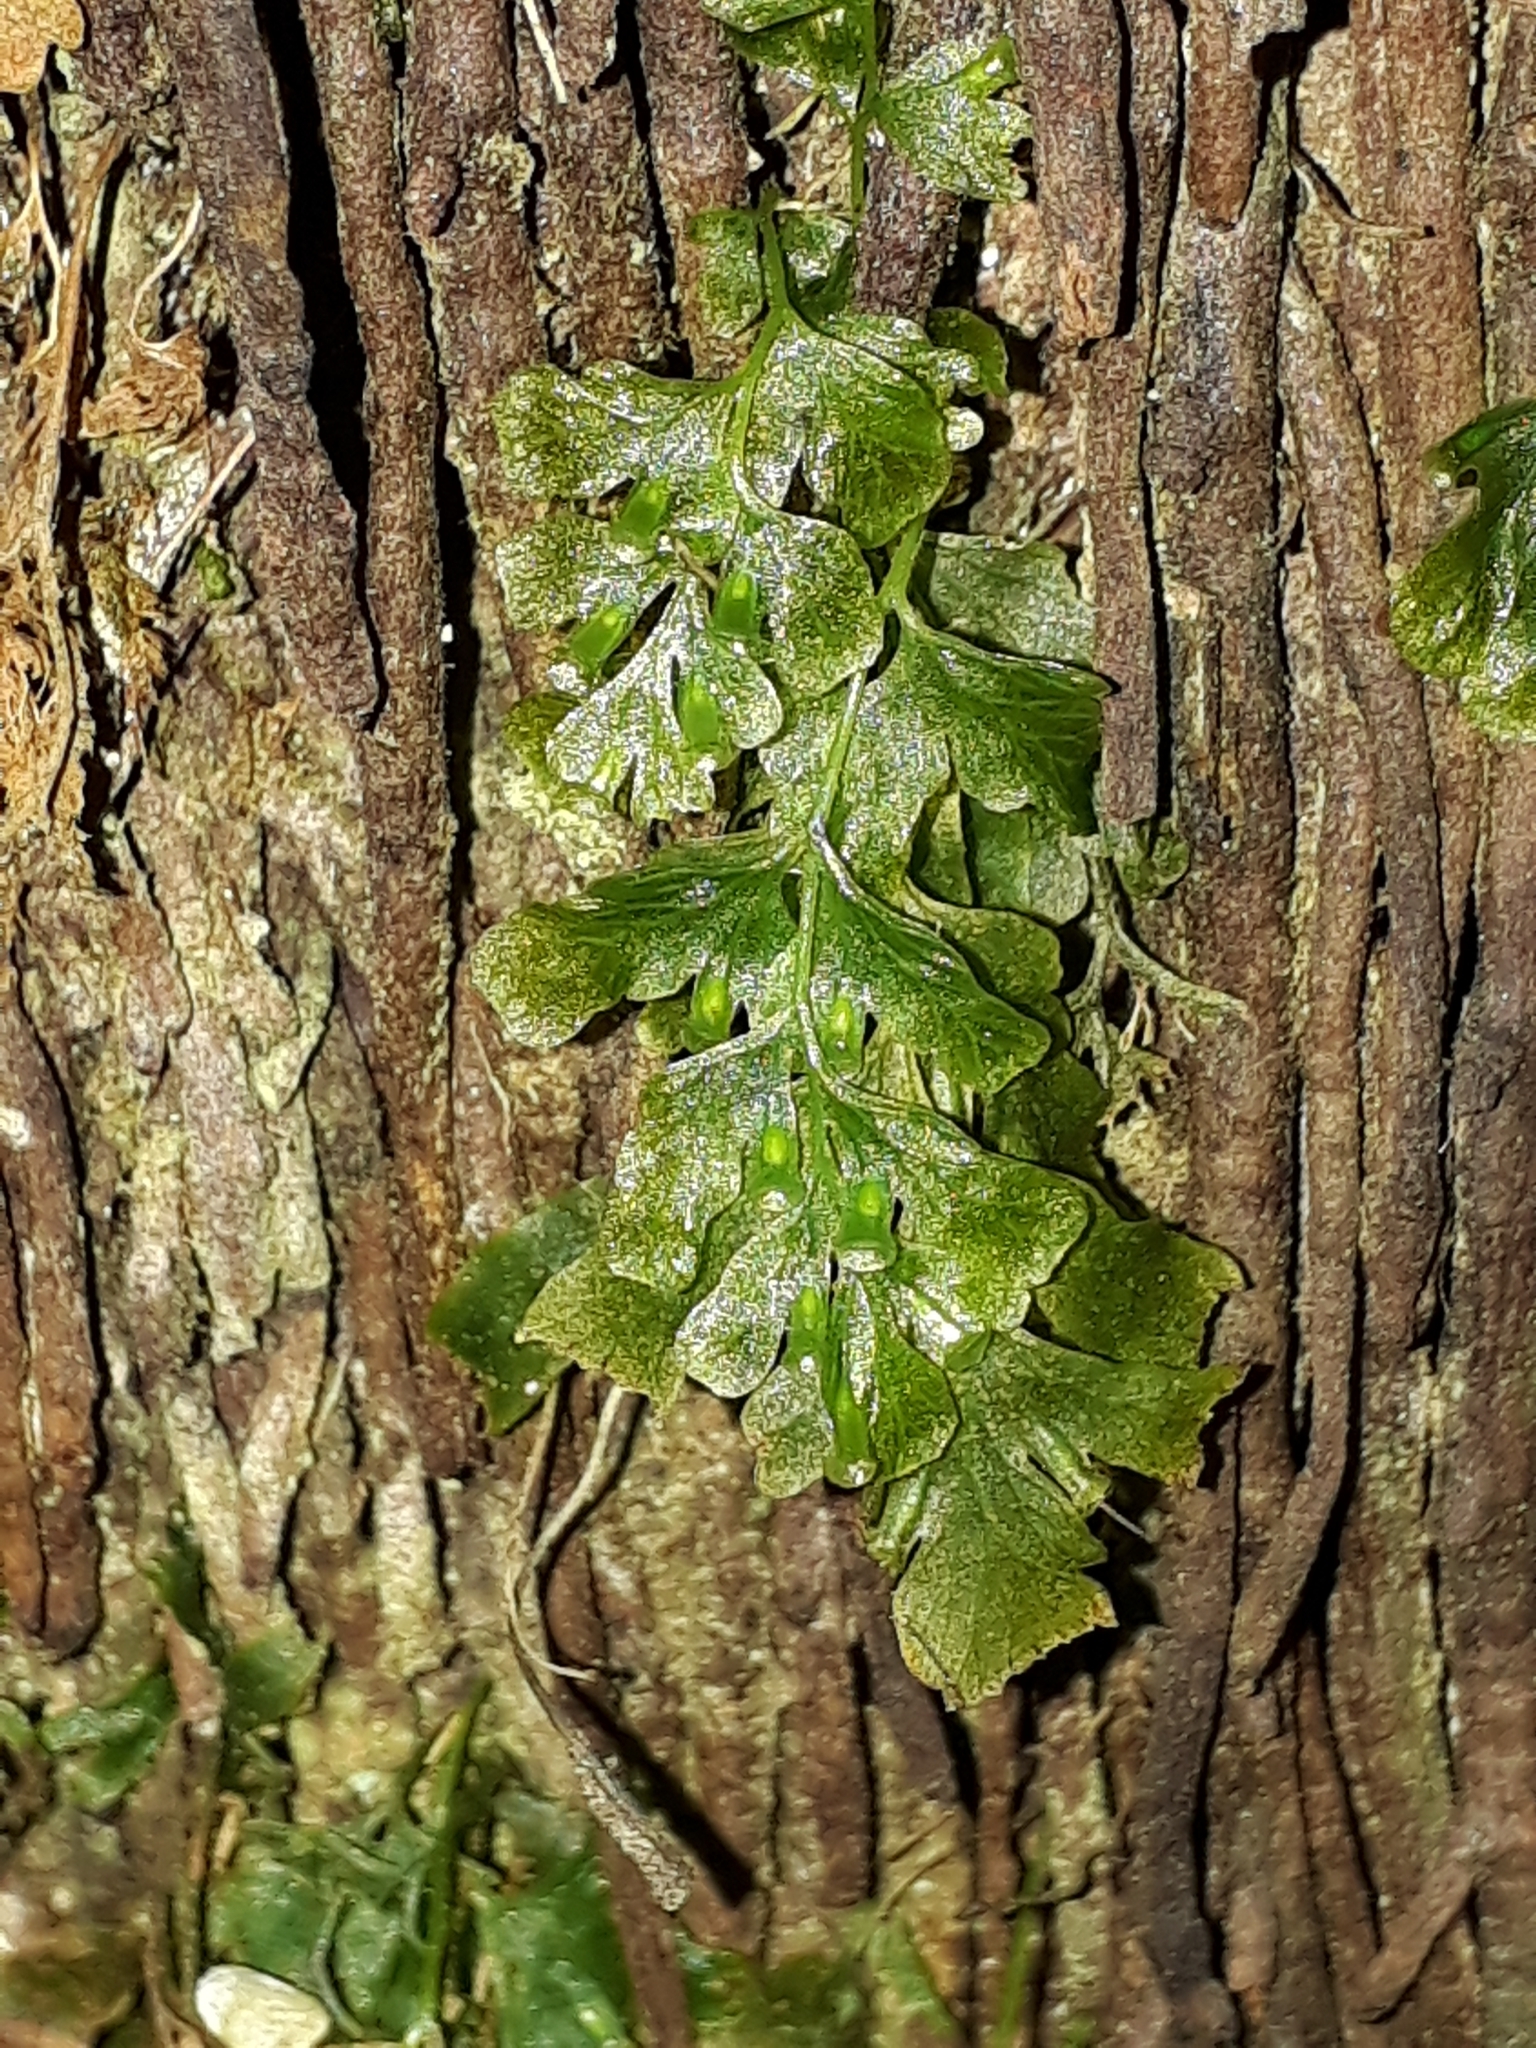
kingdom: Plantae
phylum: Tracheophyta
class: Polypodiopsida
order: Hymenophyllales
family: Hymenophyllaceae
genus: Polyphlebium
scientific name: Polyphlebium venosum
